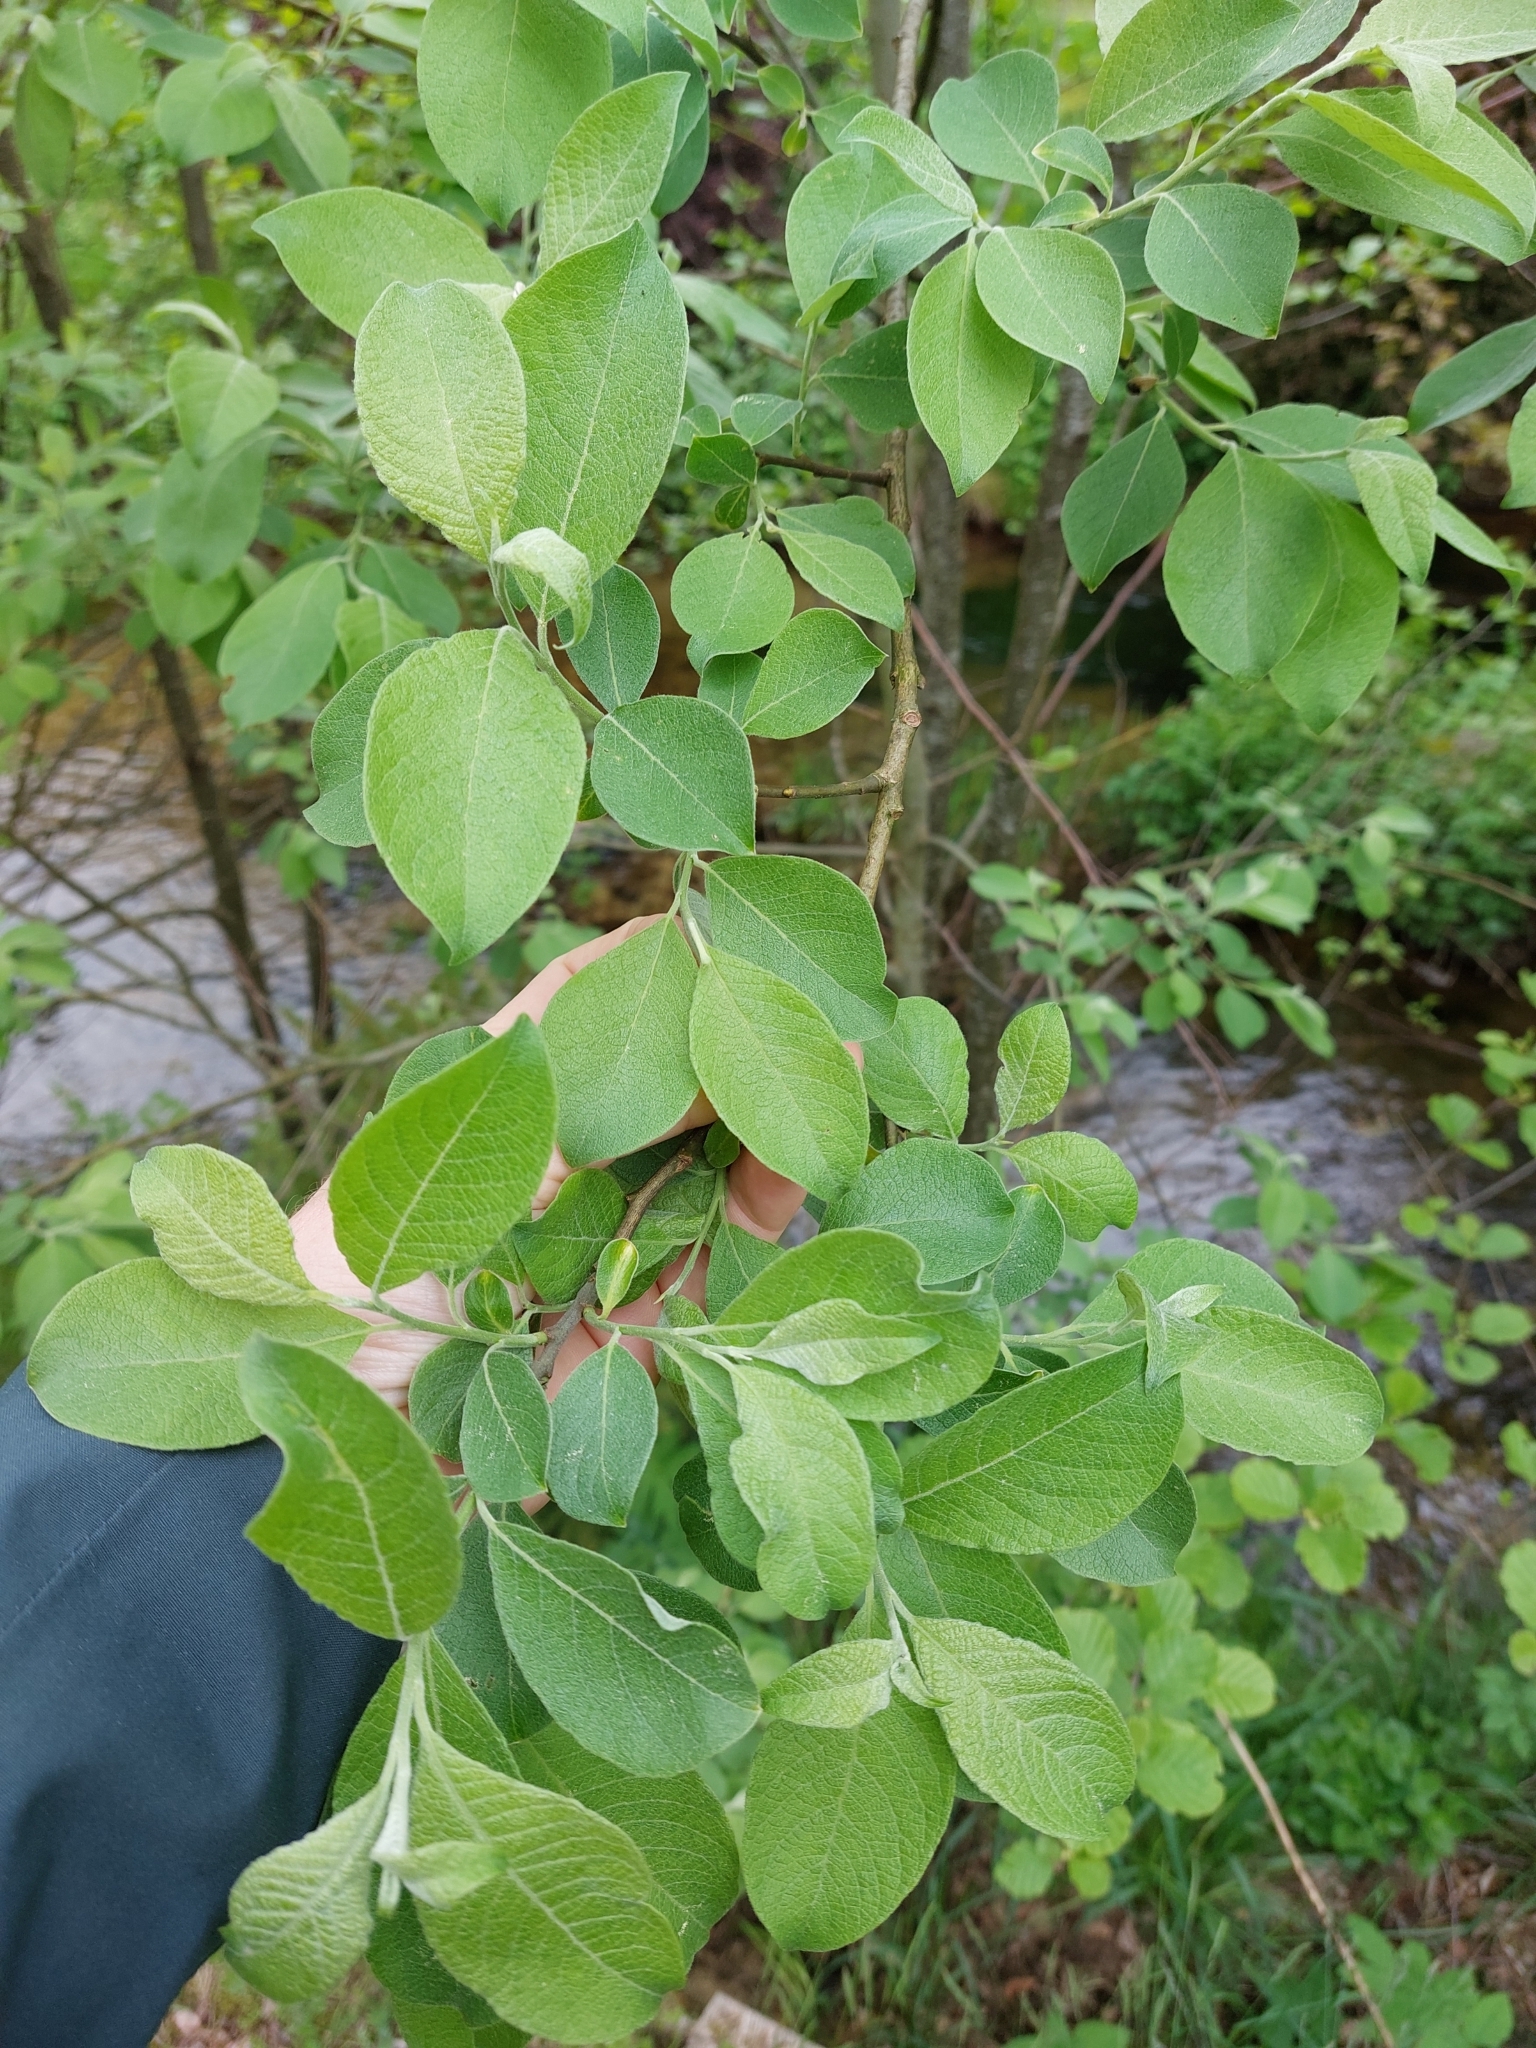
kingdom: Plantae
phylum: Tracheophyta
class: Magnoliopsida
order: Malpighiales
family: Salicaceae
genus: Salix
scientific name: Salix caprea
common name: Goat willow
